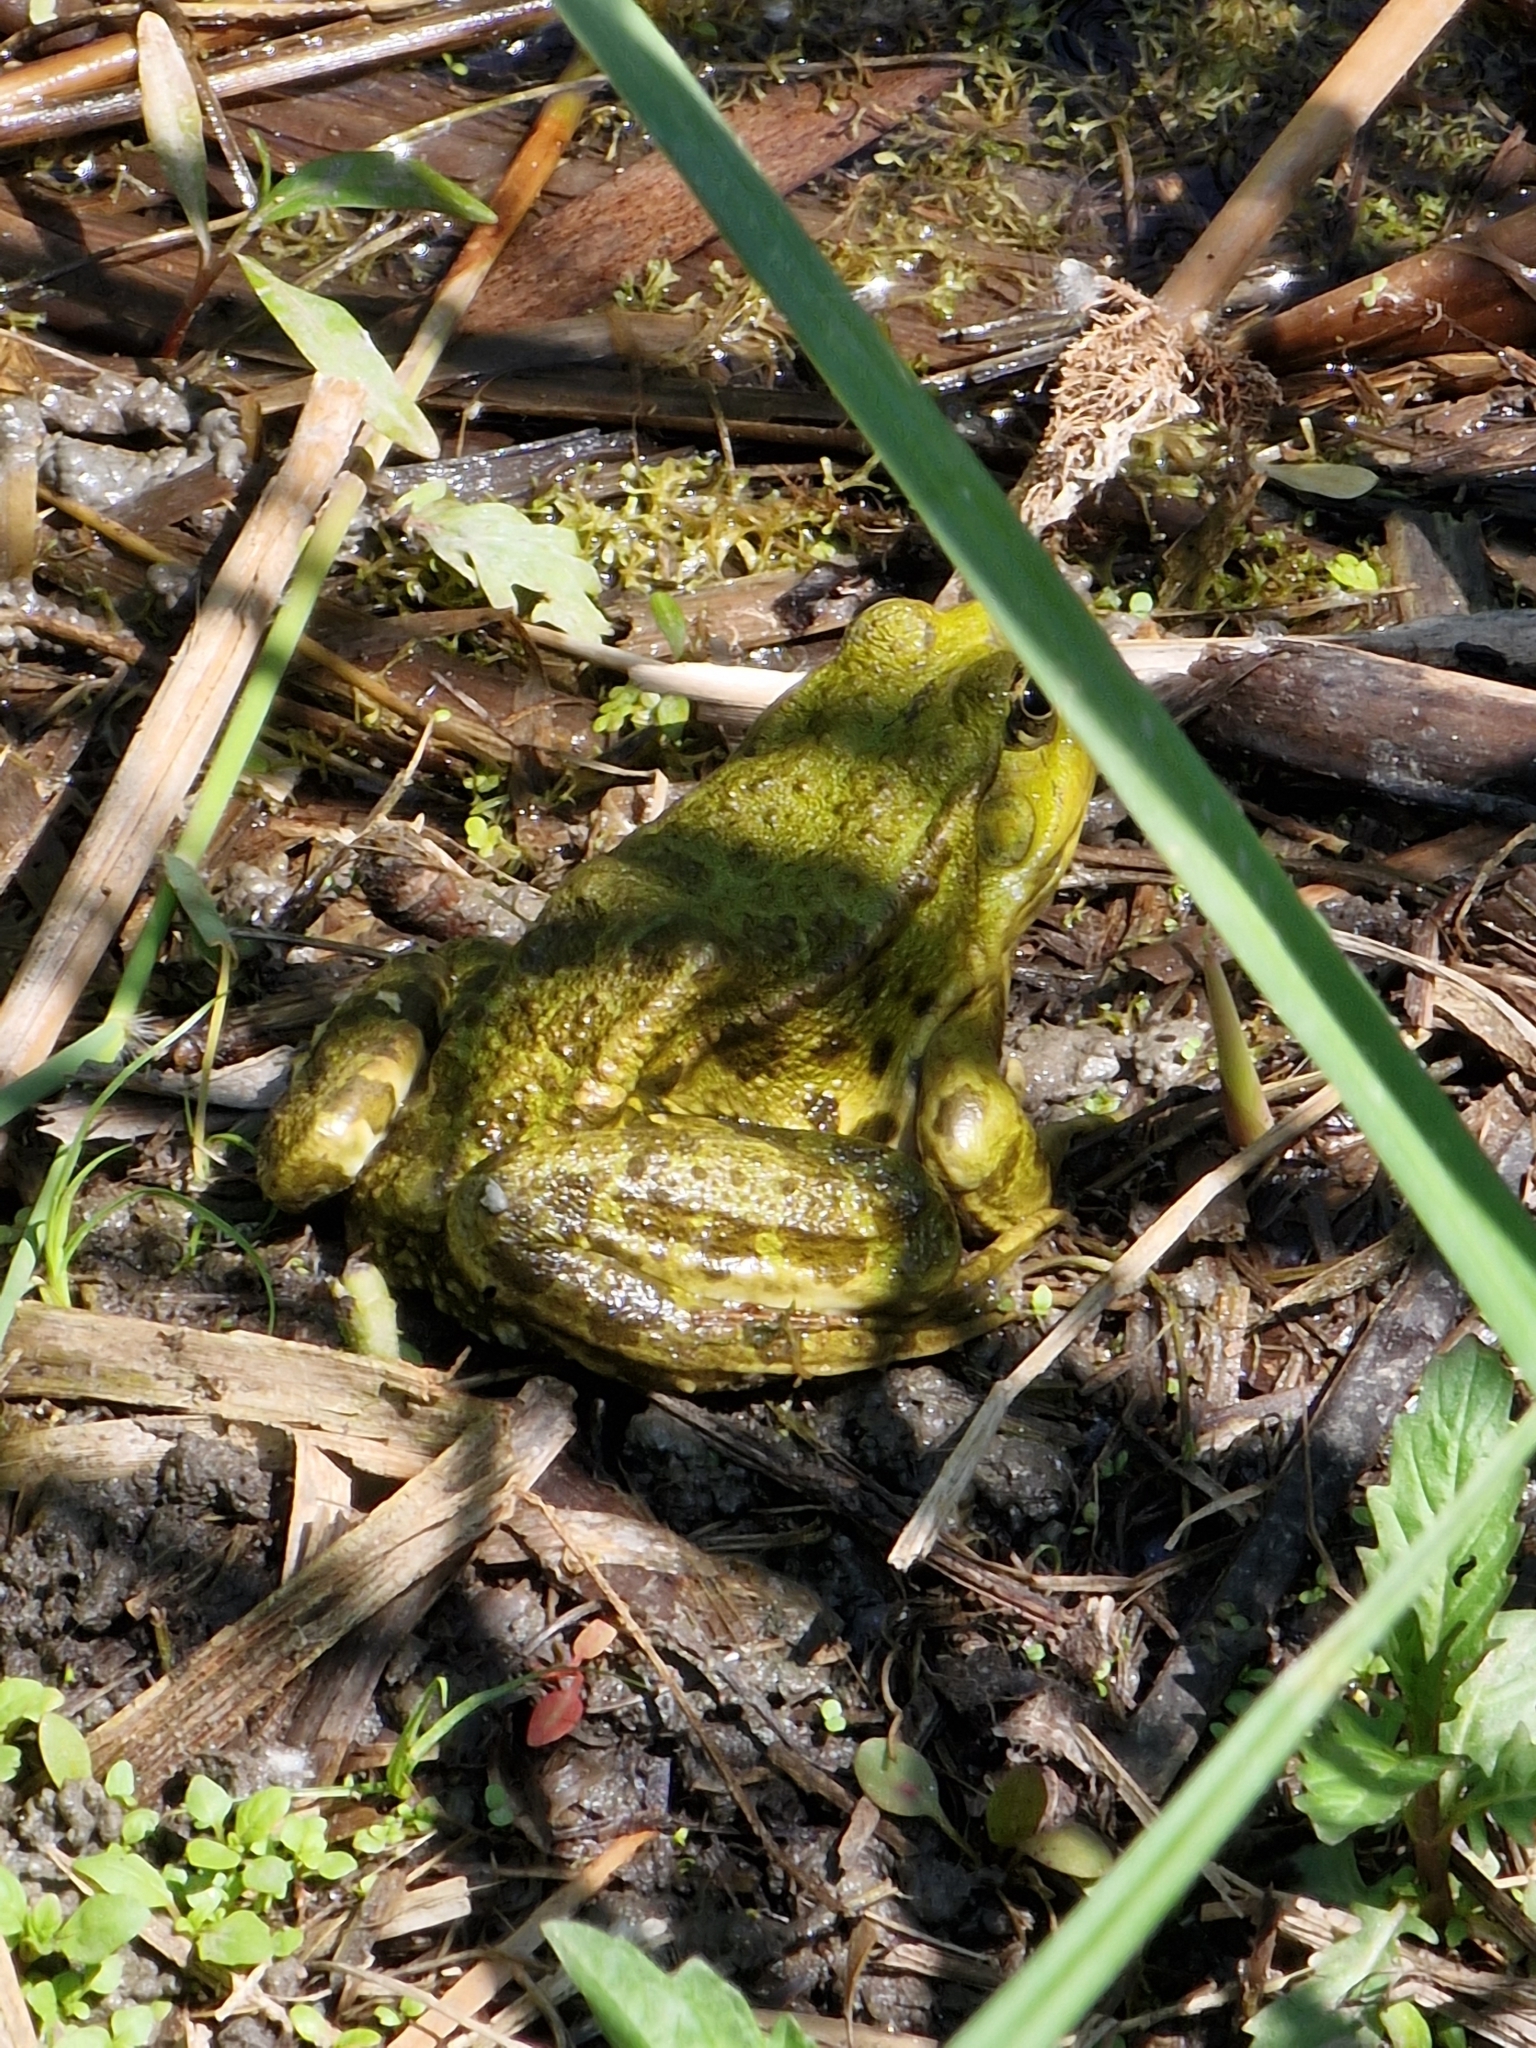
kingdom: Animalia
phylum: Chordata
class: Amphibia
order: Anura
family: Ranidae
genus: Pelophylax
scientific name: Pelophylax ridibundus
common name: Marsh frog
